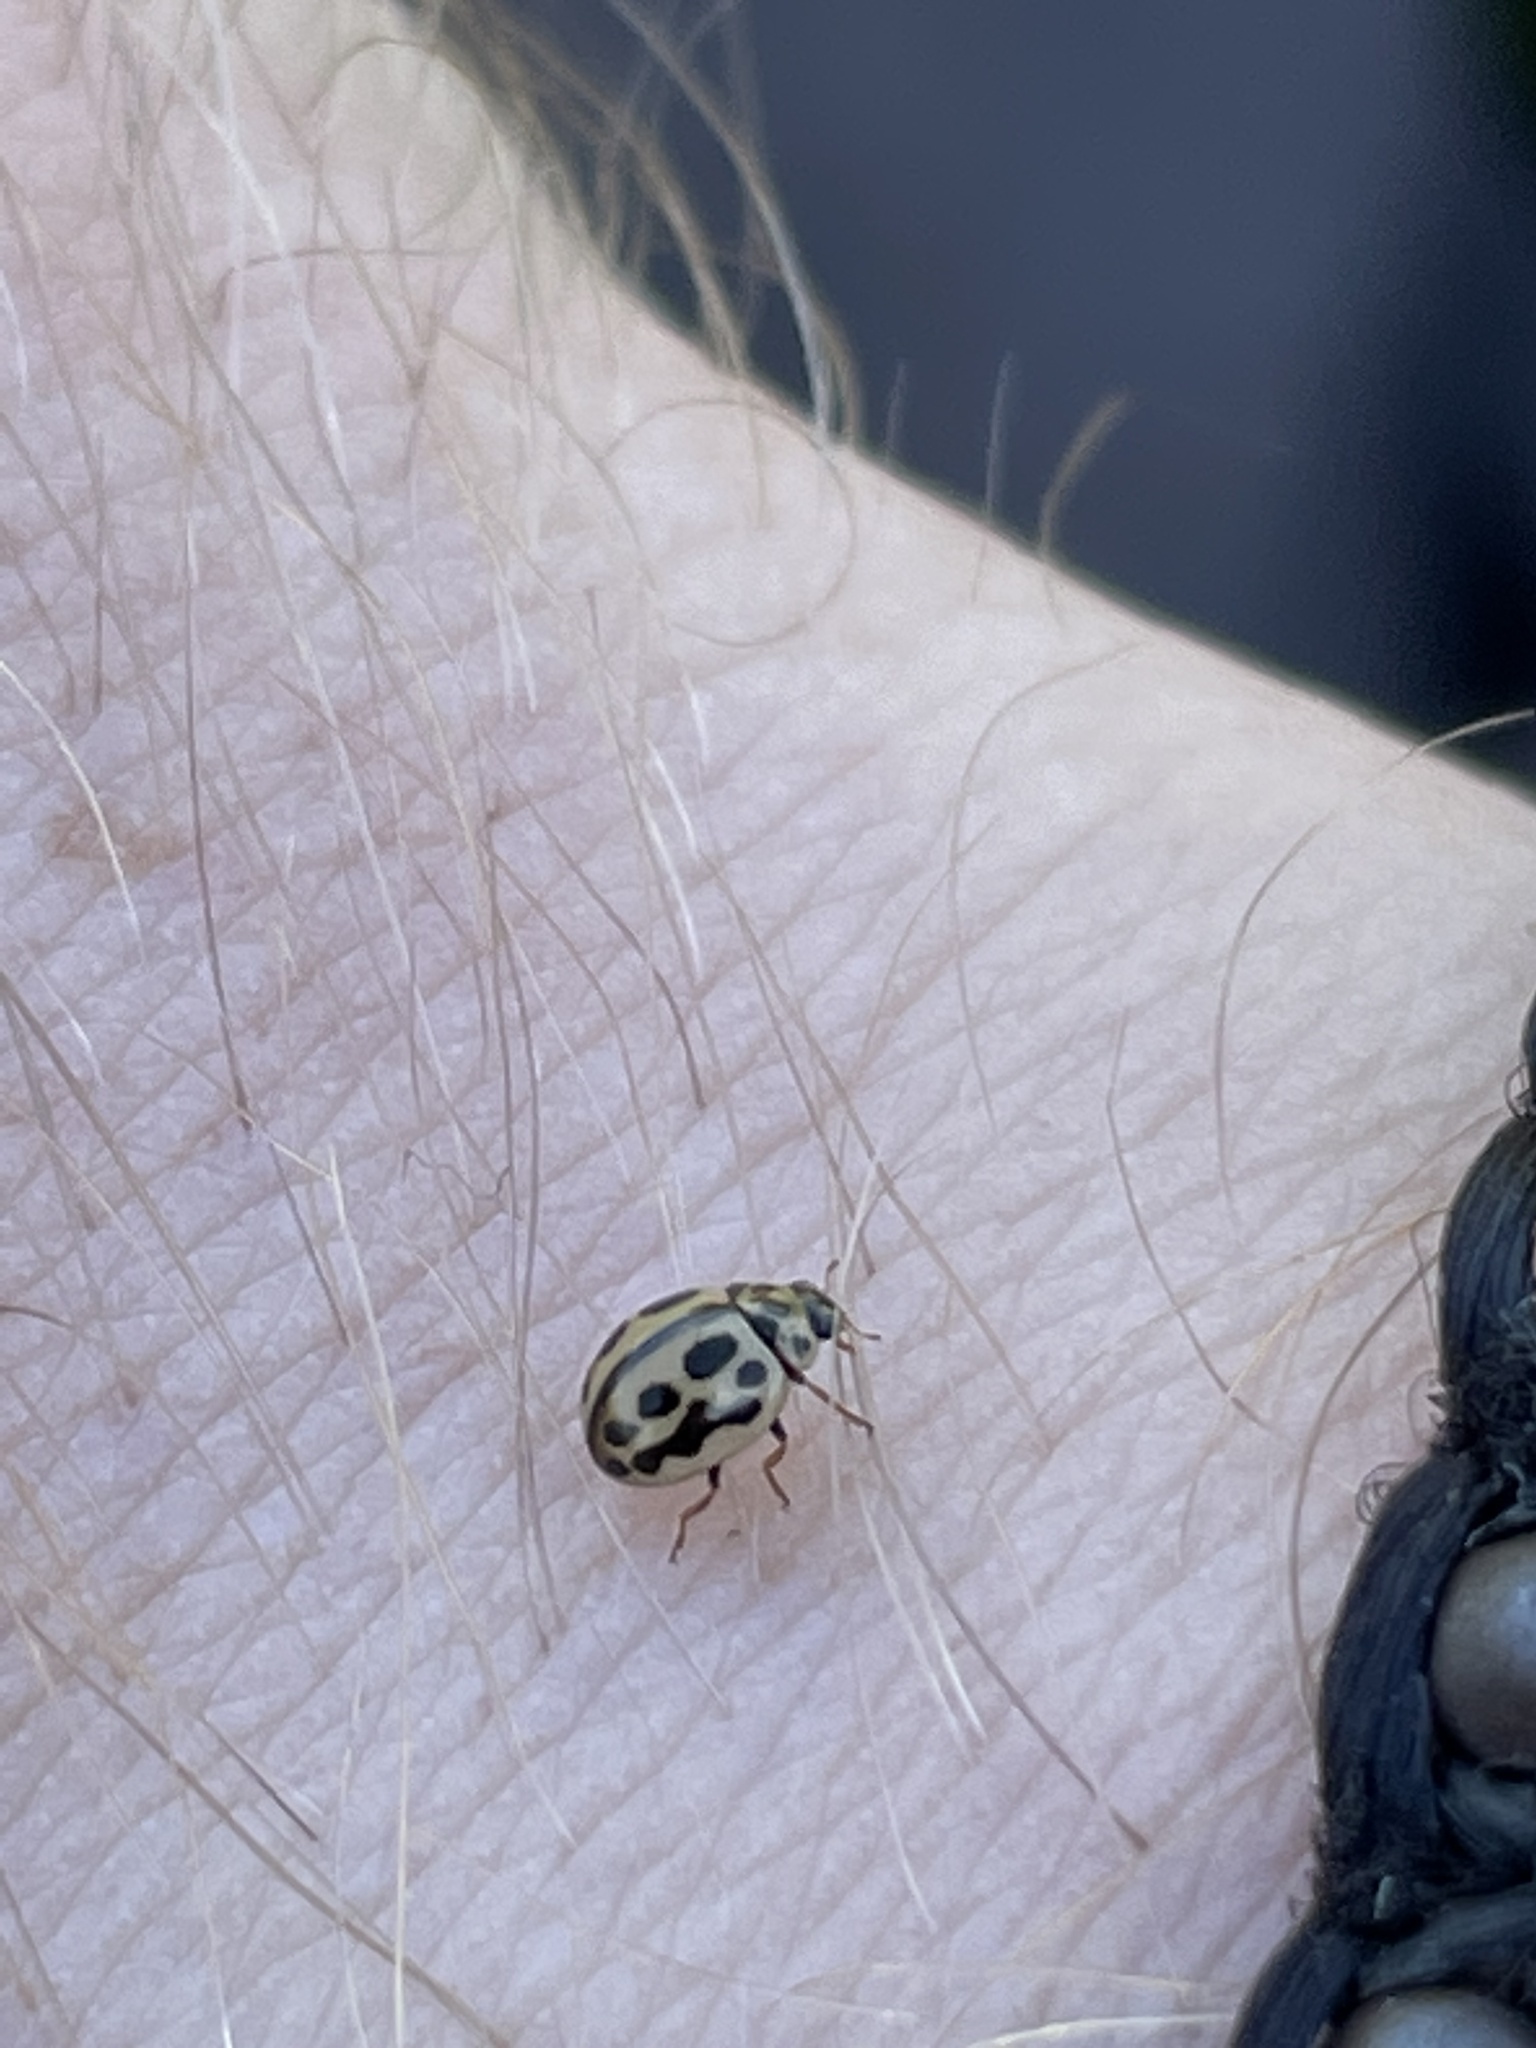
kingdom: Animalia
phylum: Arthropoda
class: Insecta
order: Coleoptera
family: Coccinellidae
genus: Tytthaspis
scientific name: Tytthaspis sedecimpunctata
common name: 16-spot ladybird
